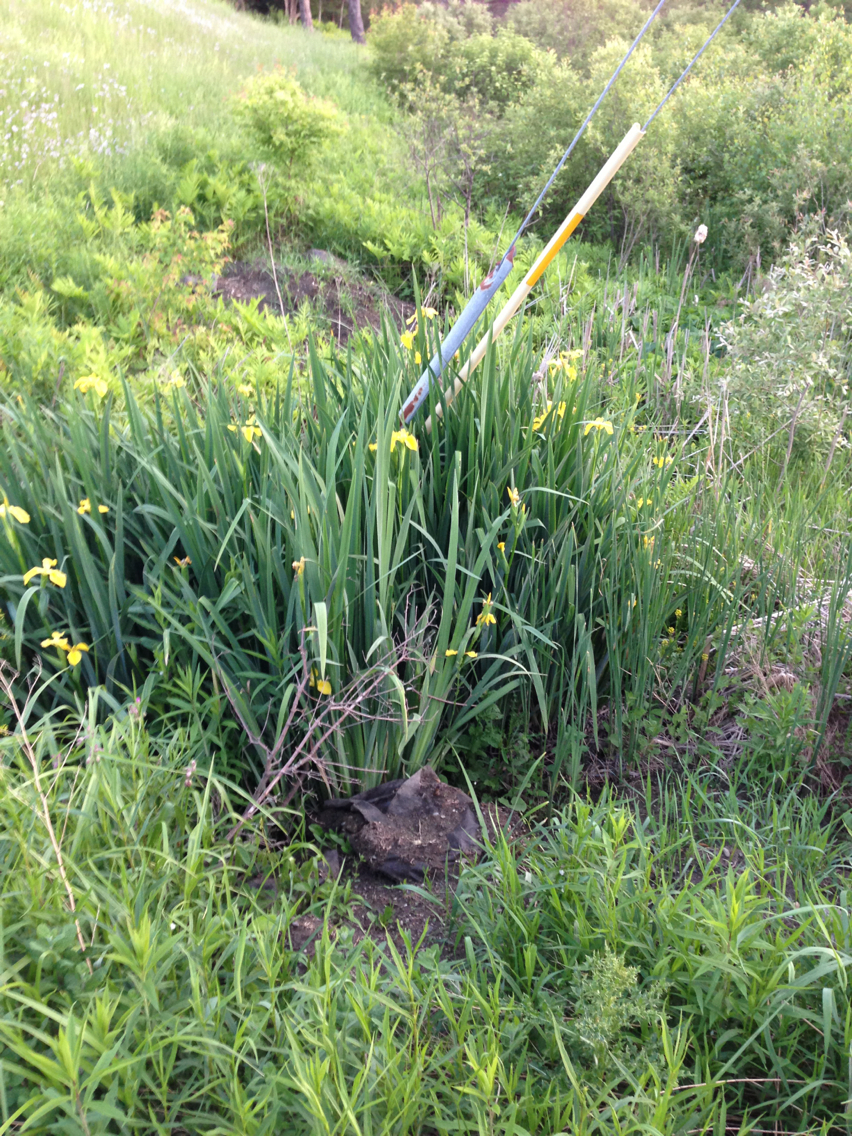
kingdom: Plantae
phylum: Tracheophyta
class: Liliopsida
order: Asparagales
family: Iridaceae
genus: Iris
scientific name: Iris pseudacorus
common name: Yellow flag
